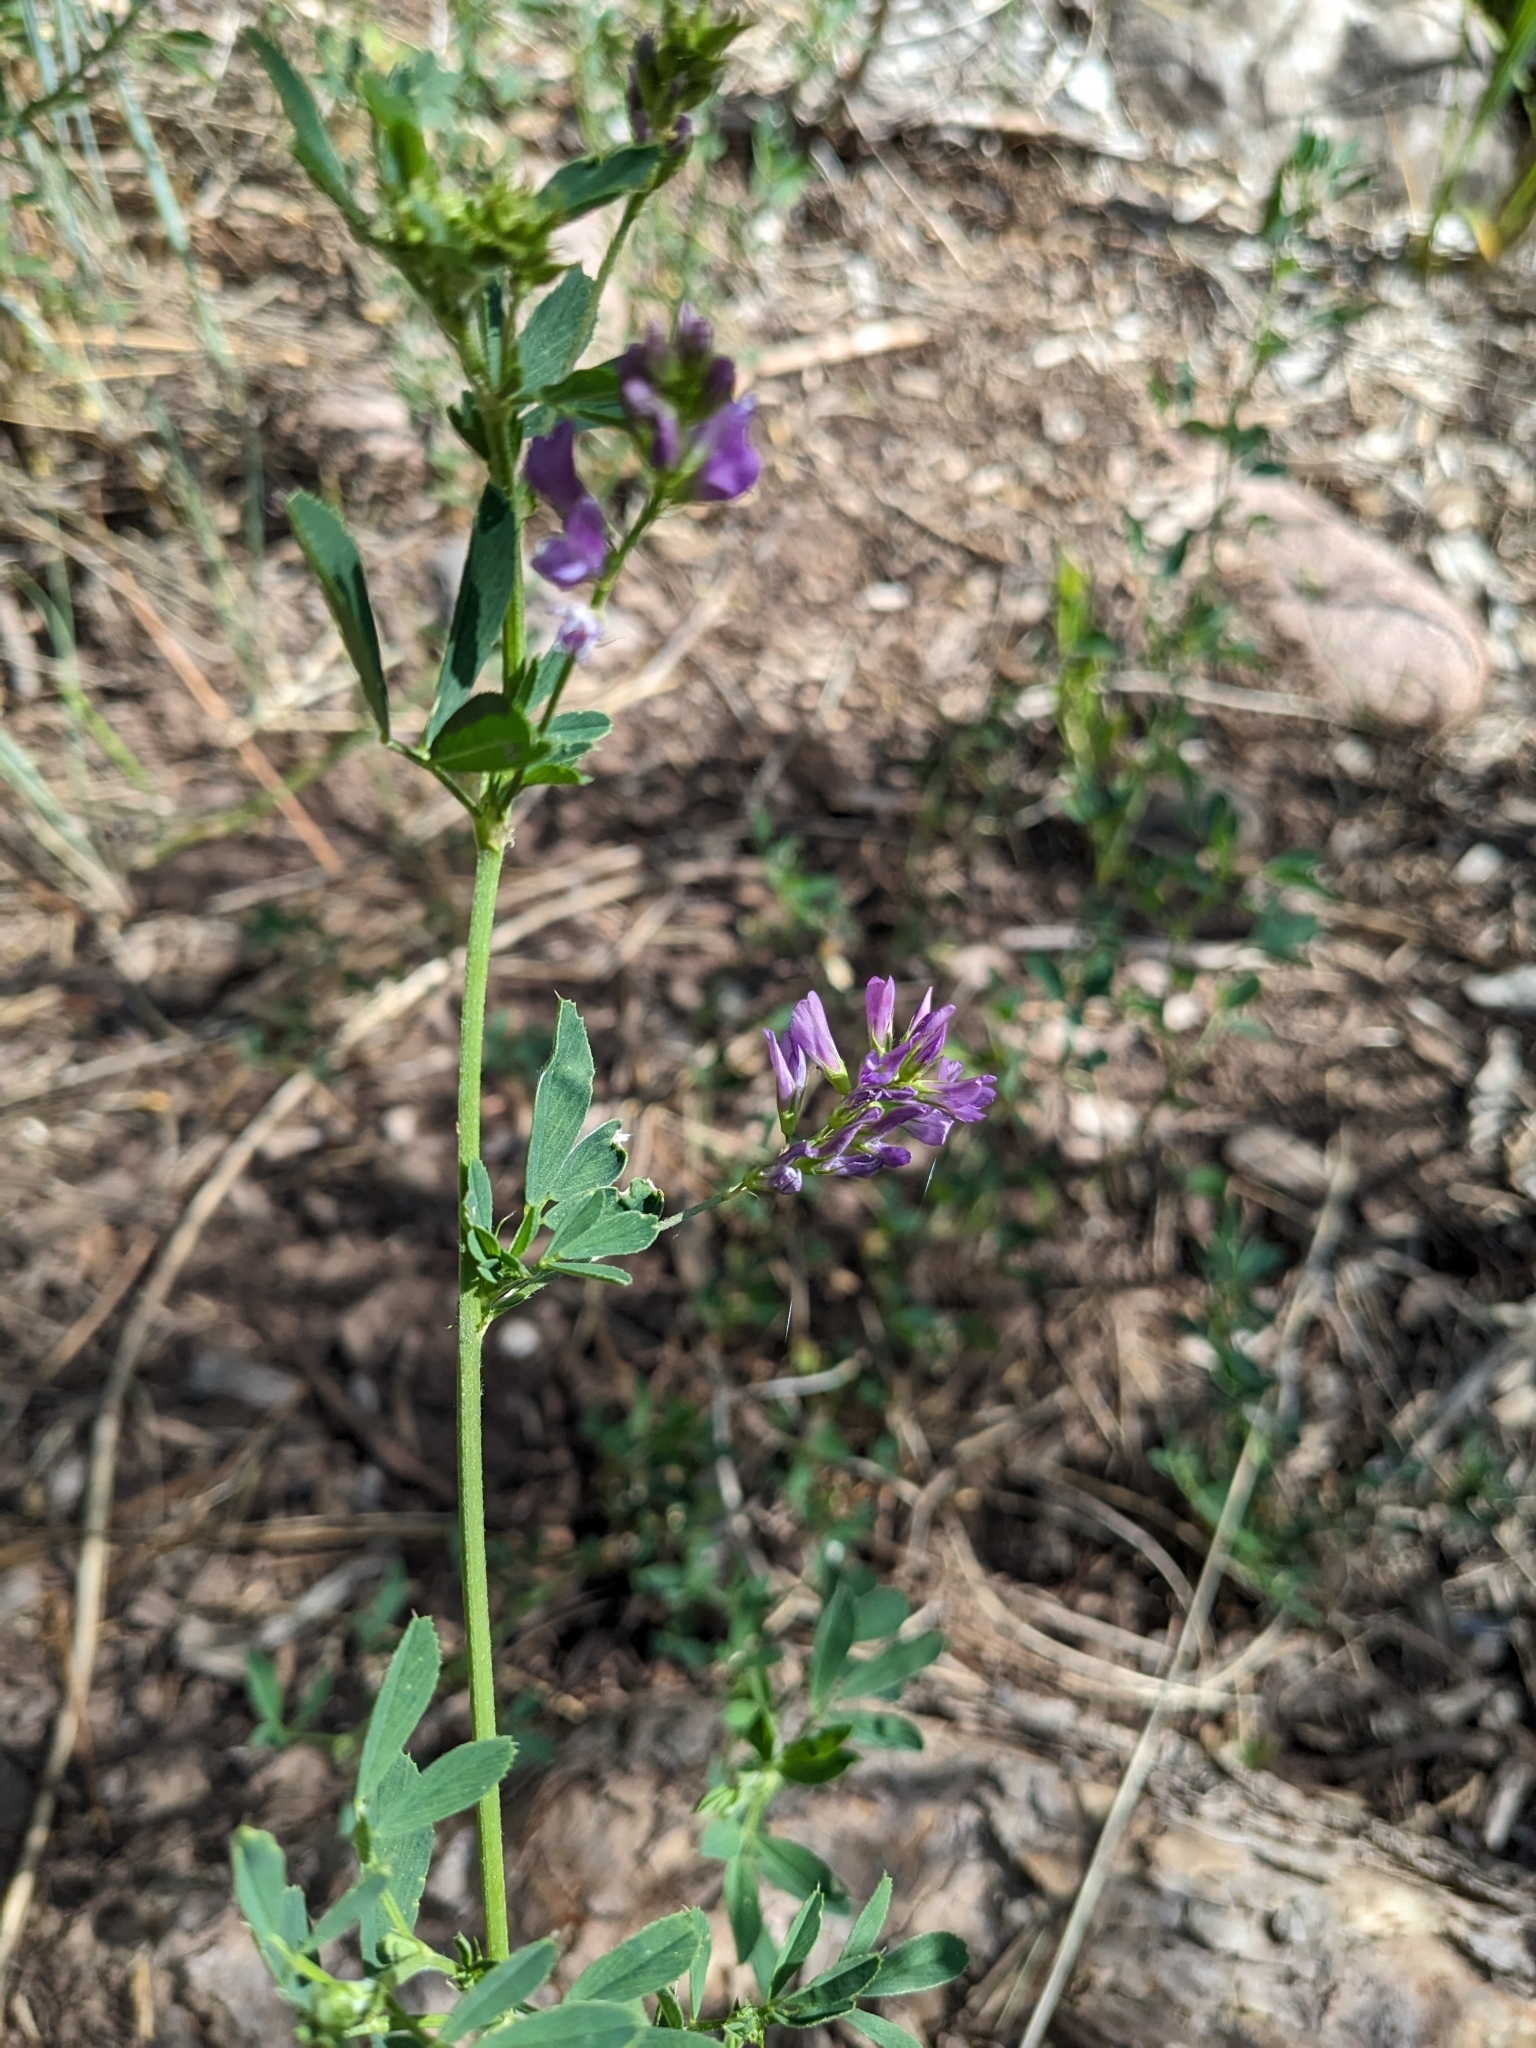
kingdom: Plantae
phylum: Tracheophyta
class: Magnoliopsida
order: Fabales
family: Fabaceae
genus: Medicago
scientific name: Medicago sativa
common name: Alfalfa
